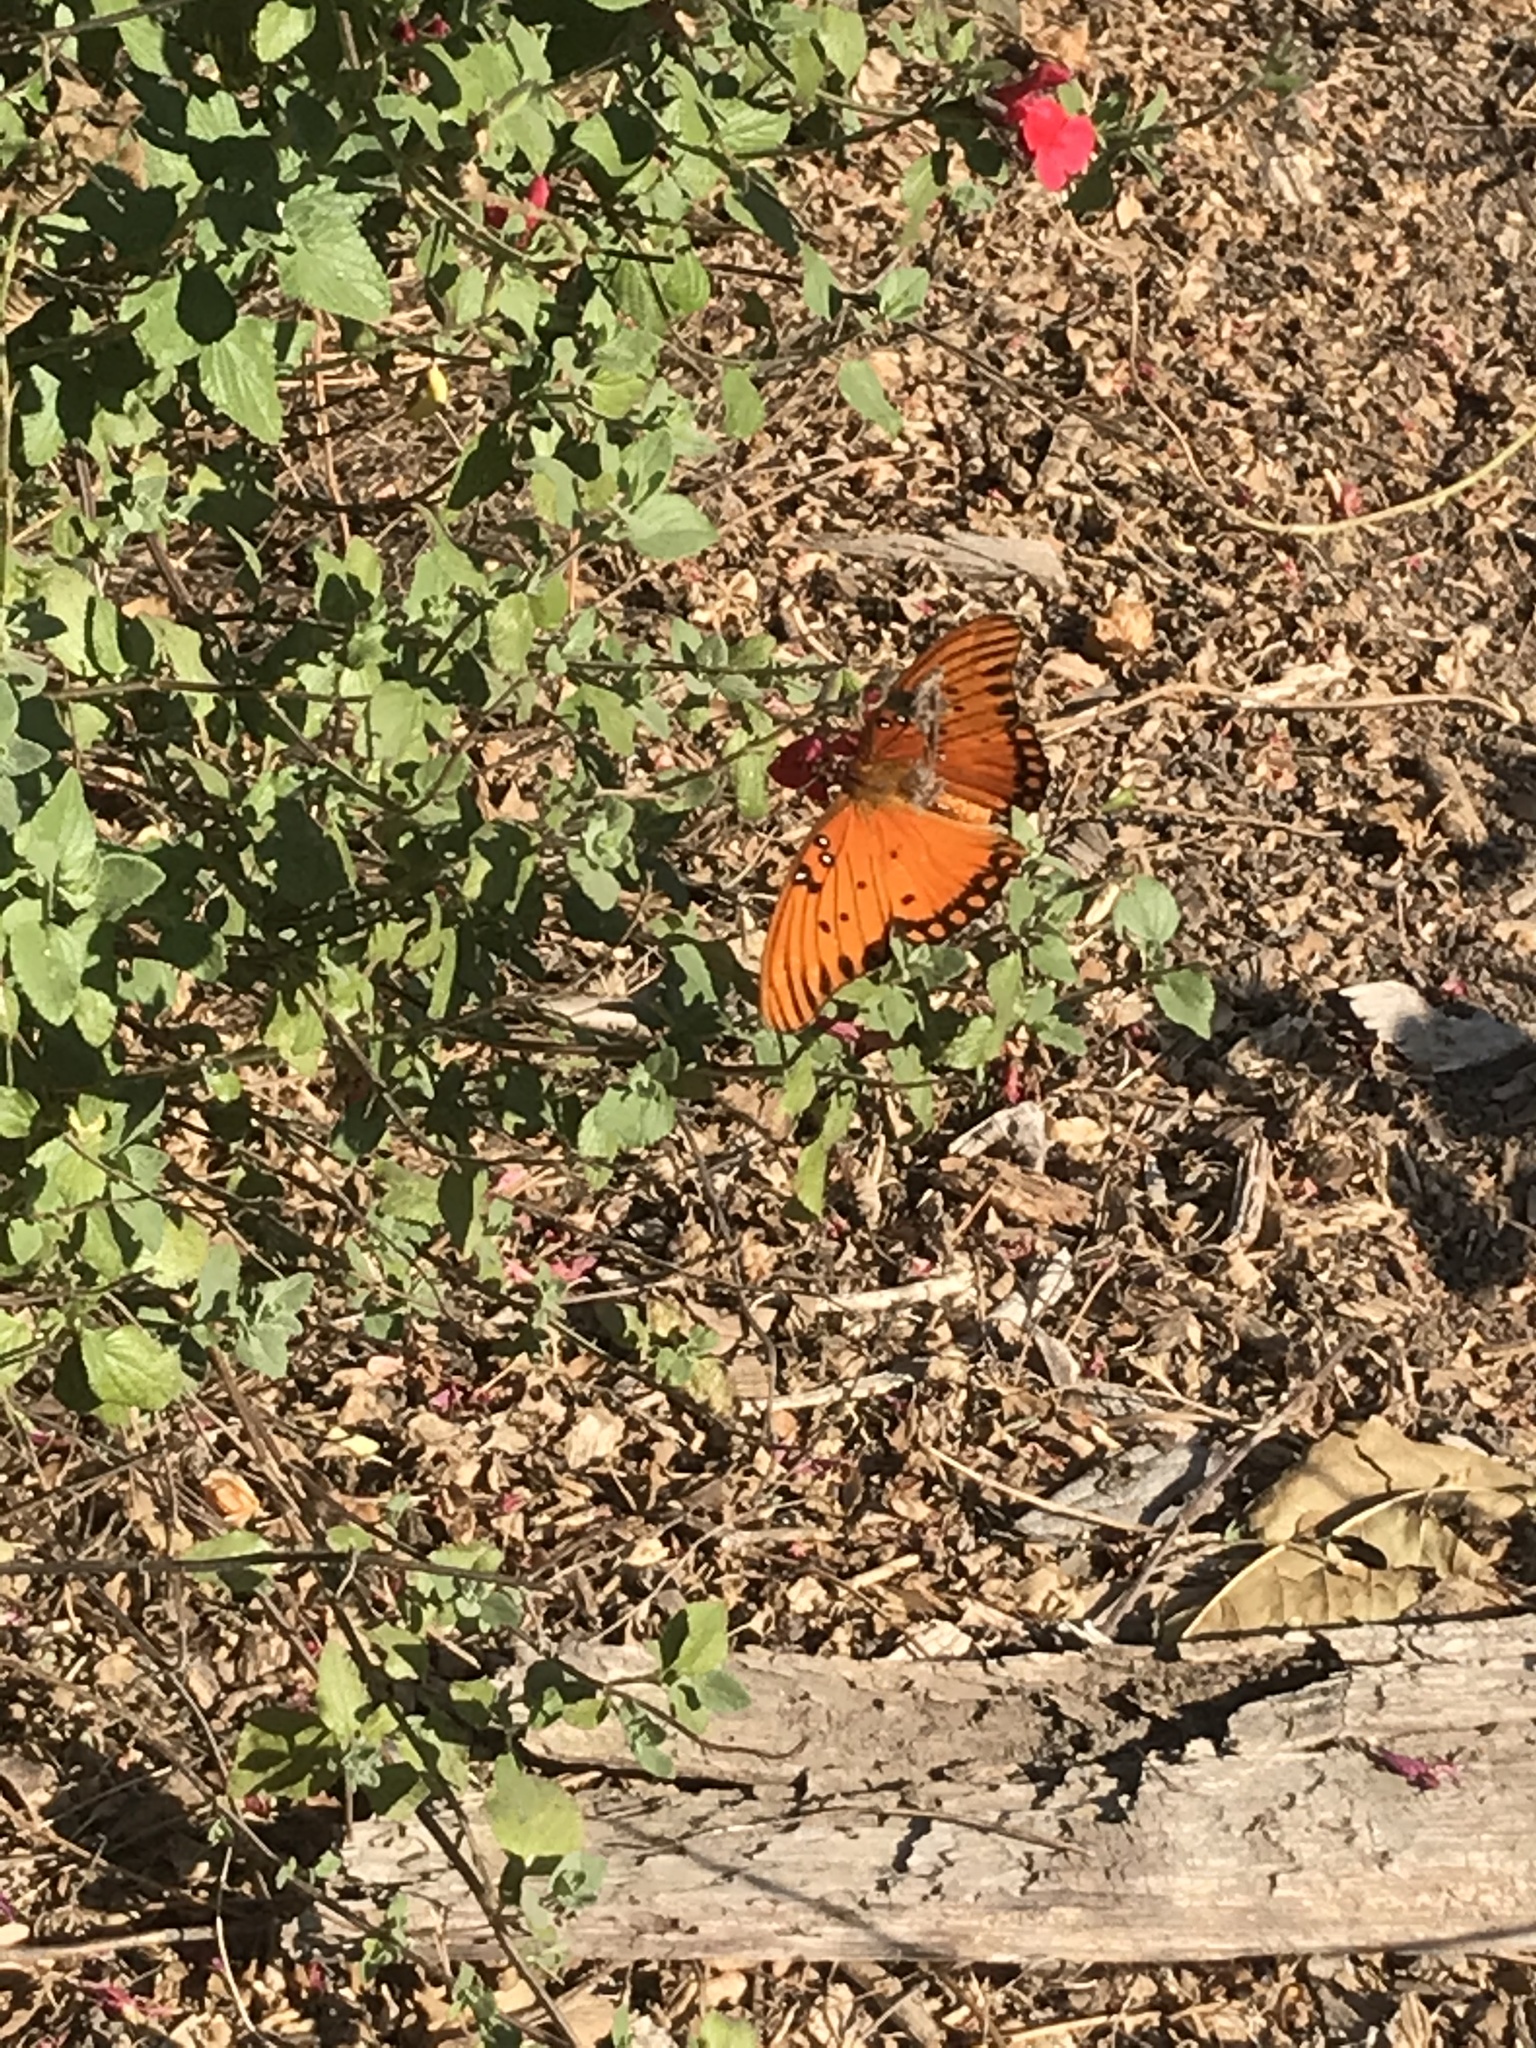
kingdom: Animalia
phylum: Arthropoda
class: Insecta
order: Lepidoptera
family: Nymphalidae
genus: Dione
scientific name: Dione vanillae
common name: Gulf fritillary
